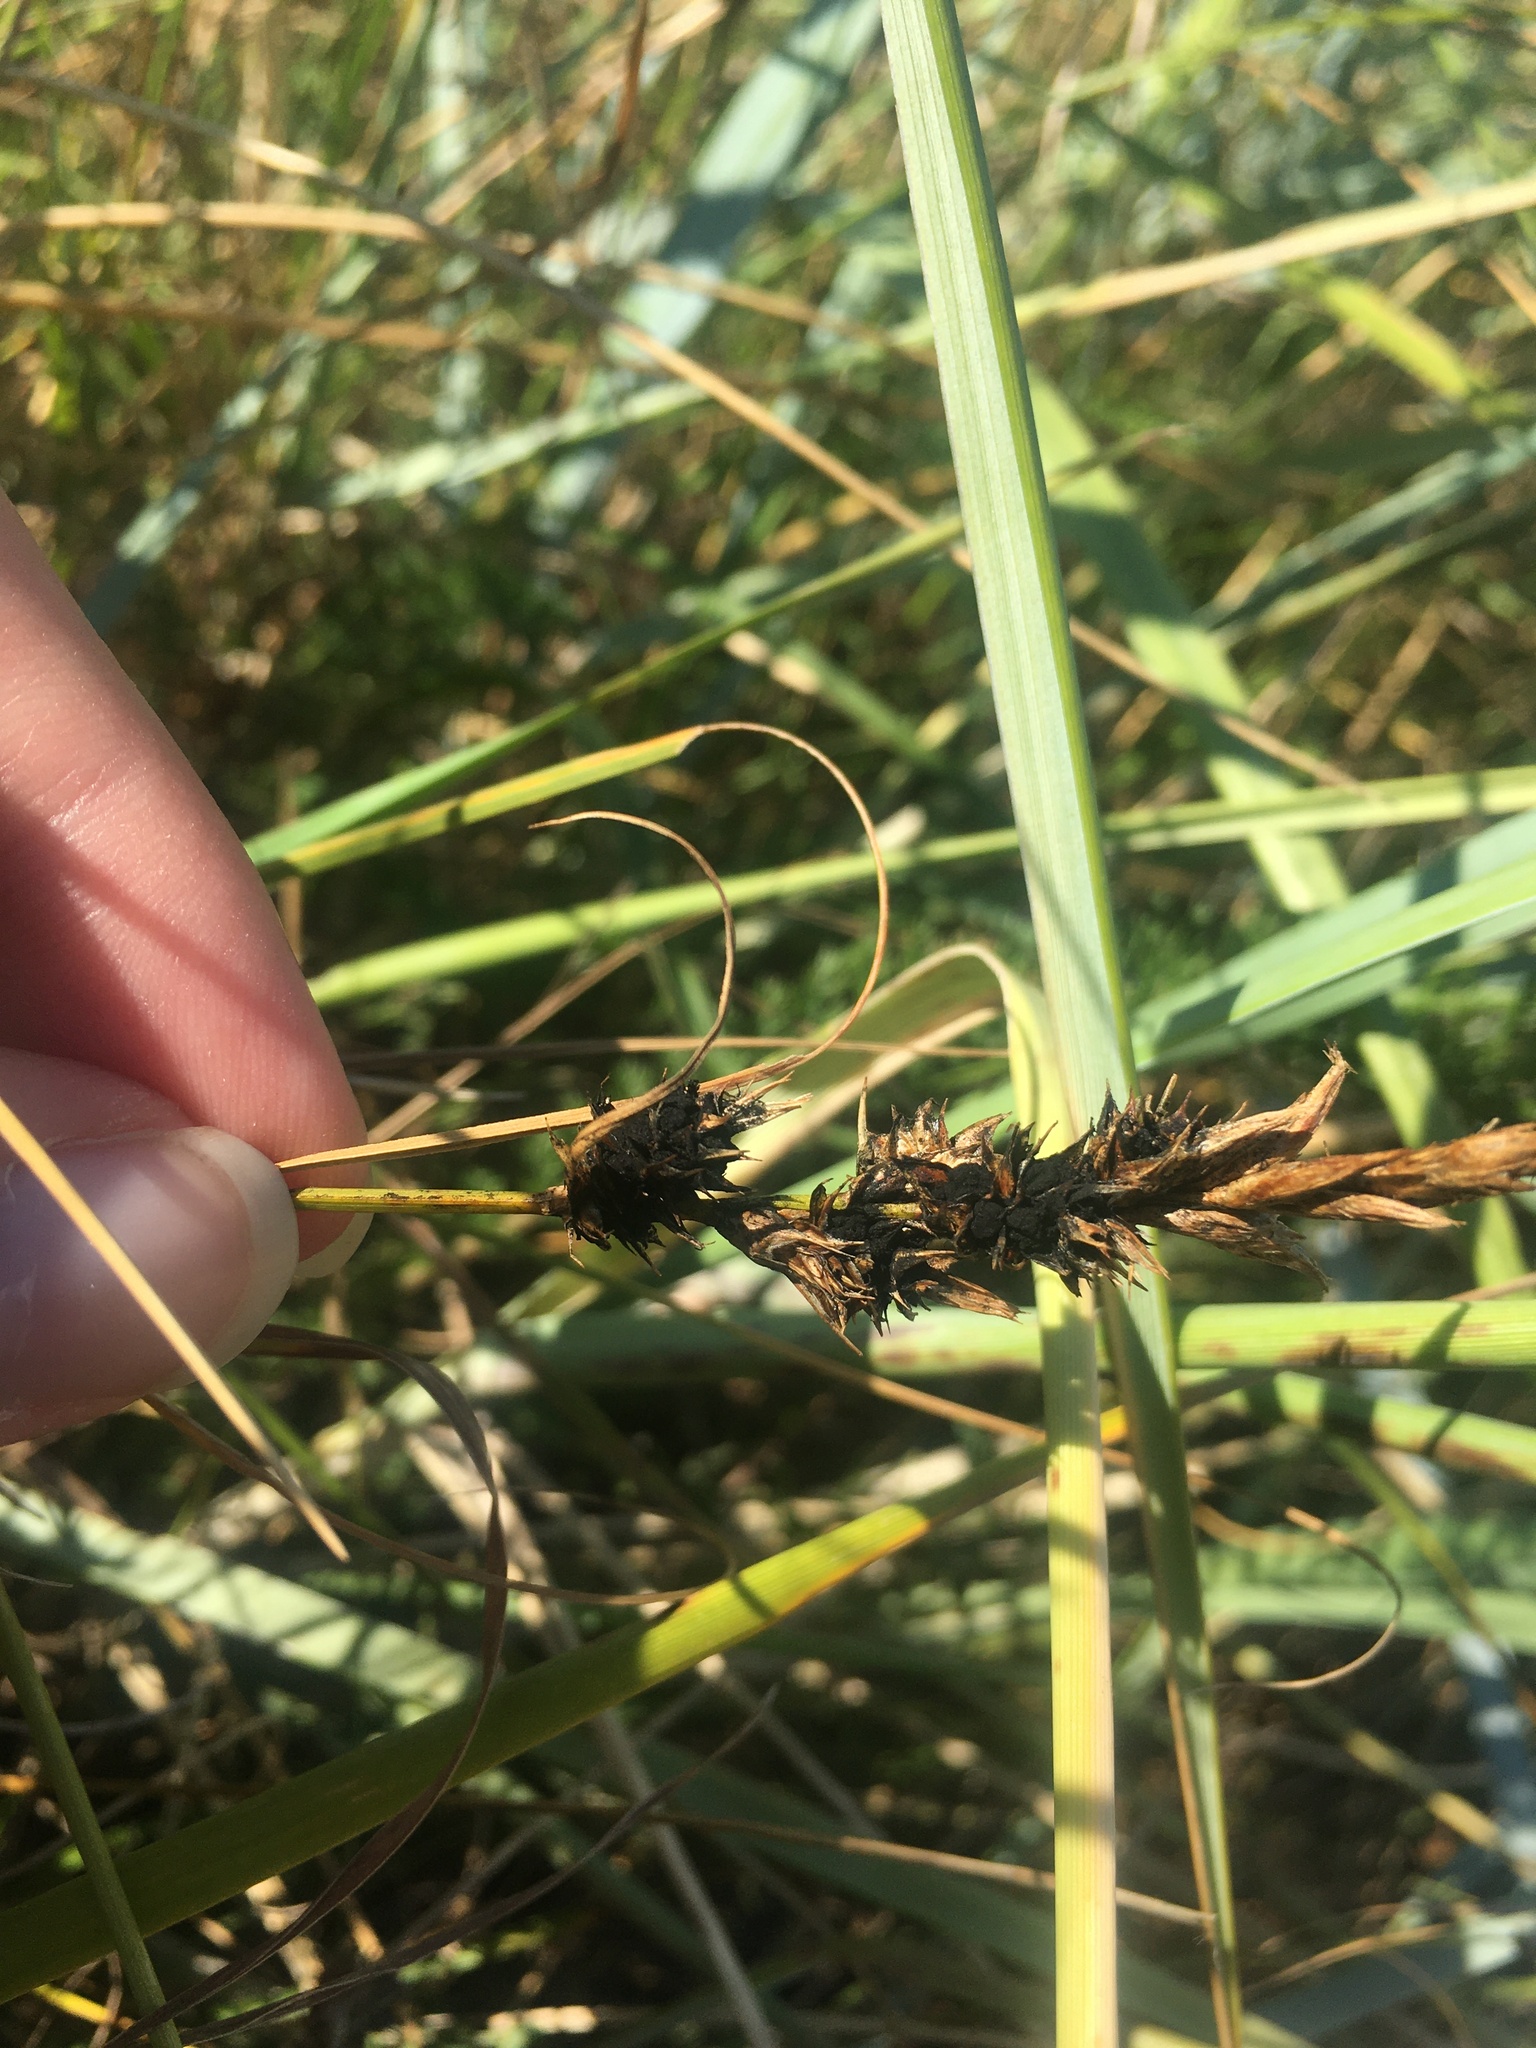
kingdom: Fungi
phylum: Basidiomycota
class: Ustilaginomycetes
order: Ustilaginales
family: Anthracoideaceae
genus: Anthracoidea
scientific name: Anthracoidea arenariae
